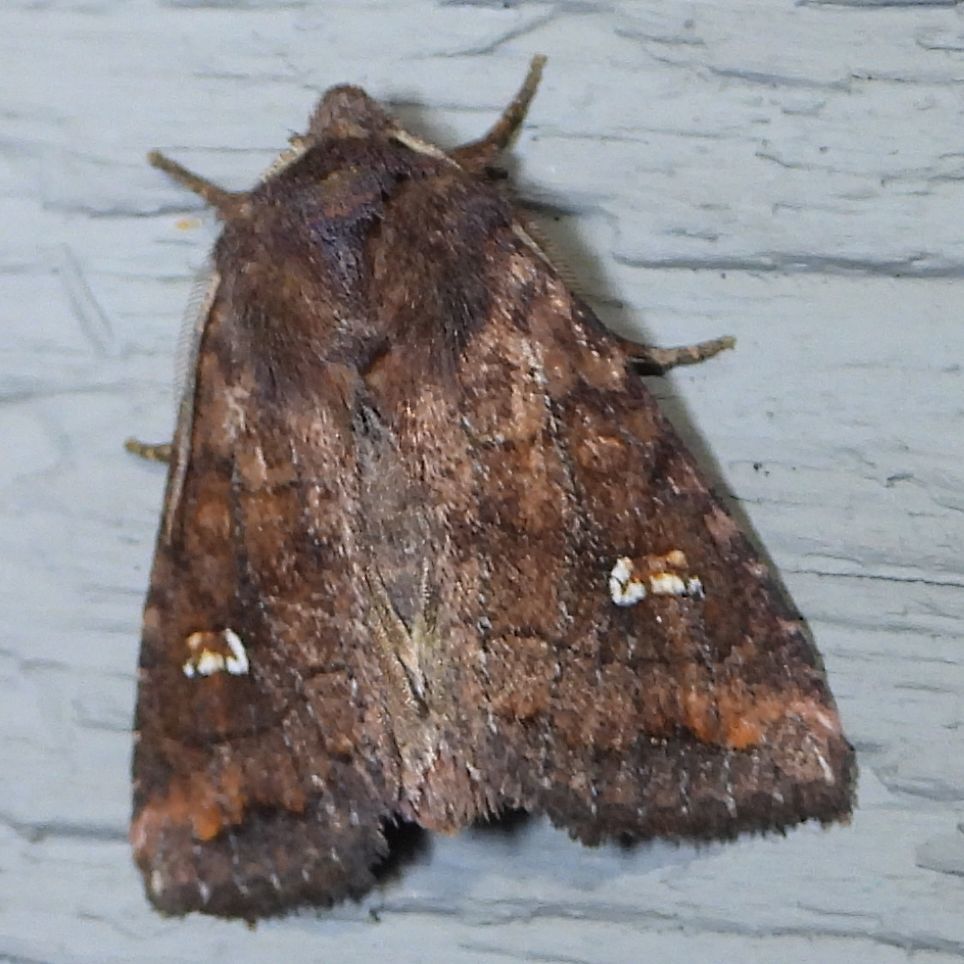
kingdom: Animalia
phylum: Arthropoda
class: Insecta
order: Lepidoptera
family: Noctuidae
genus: Tricholita
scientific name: Tricholita signata
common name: Signate quaker
